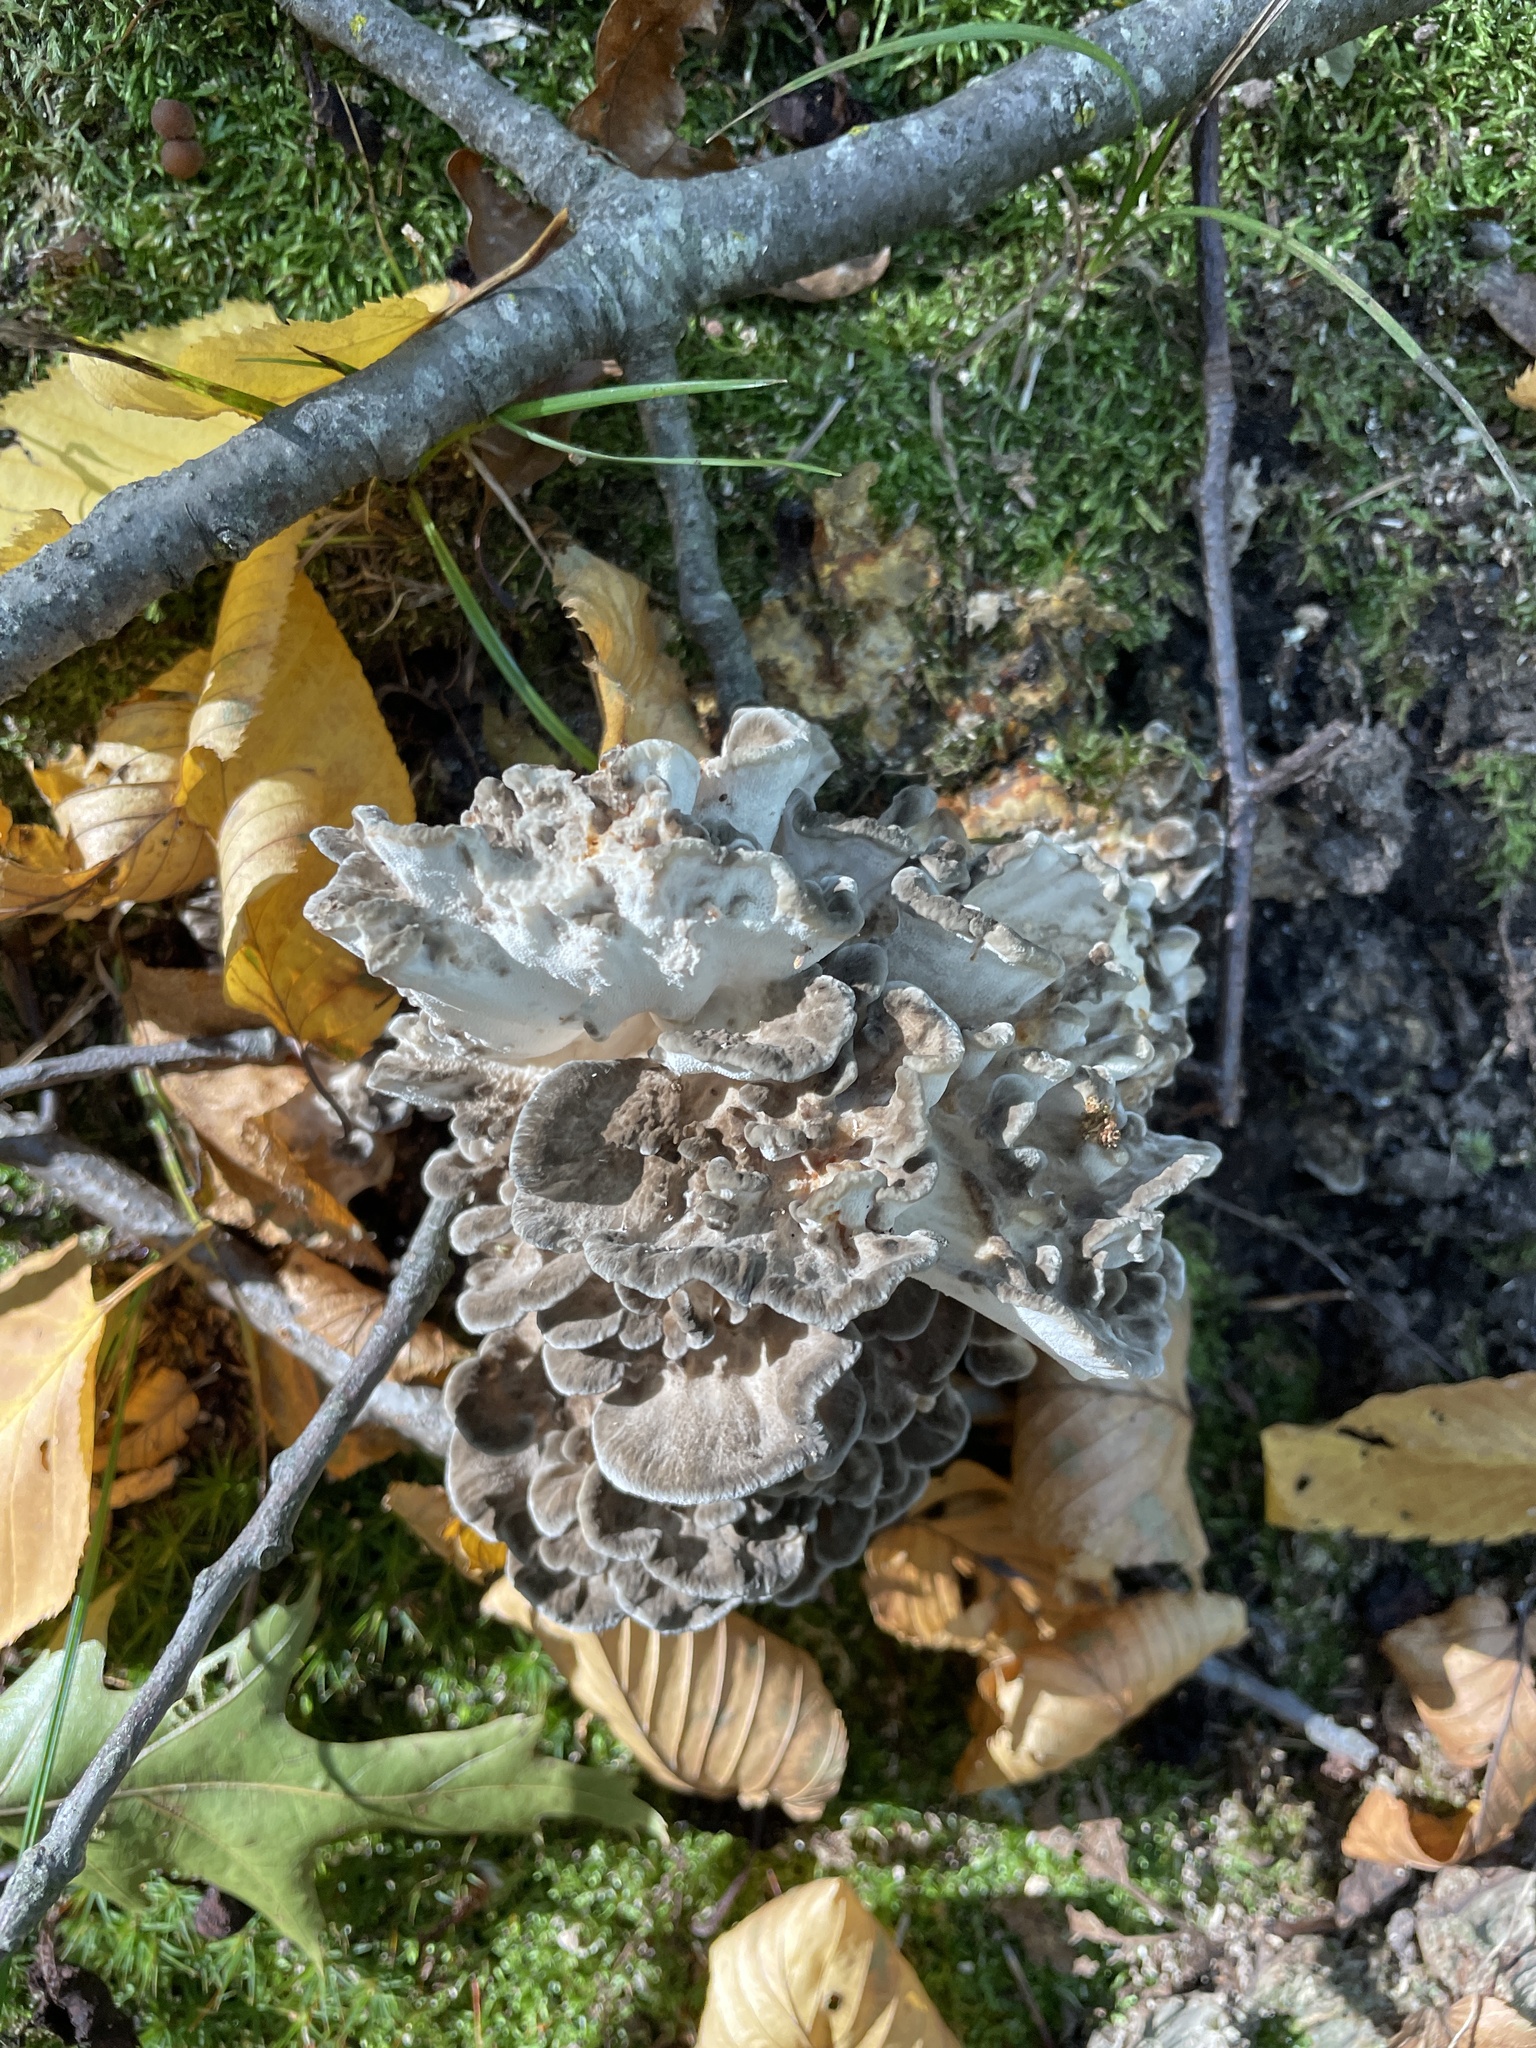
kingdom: Fungi
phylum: Basidiomycota
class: Agaricomycetes
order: Polyporales
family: Grifolaceae
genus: Grifola
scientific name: Grifola frondosa
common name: Hen of the woods
